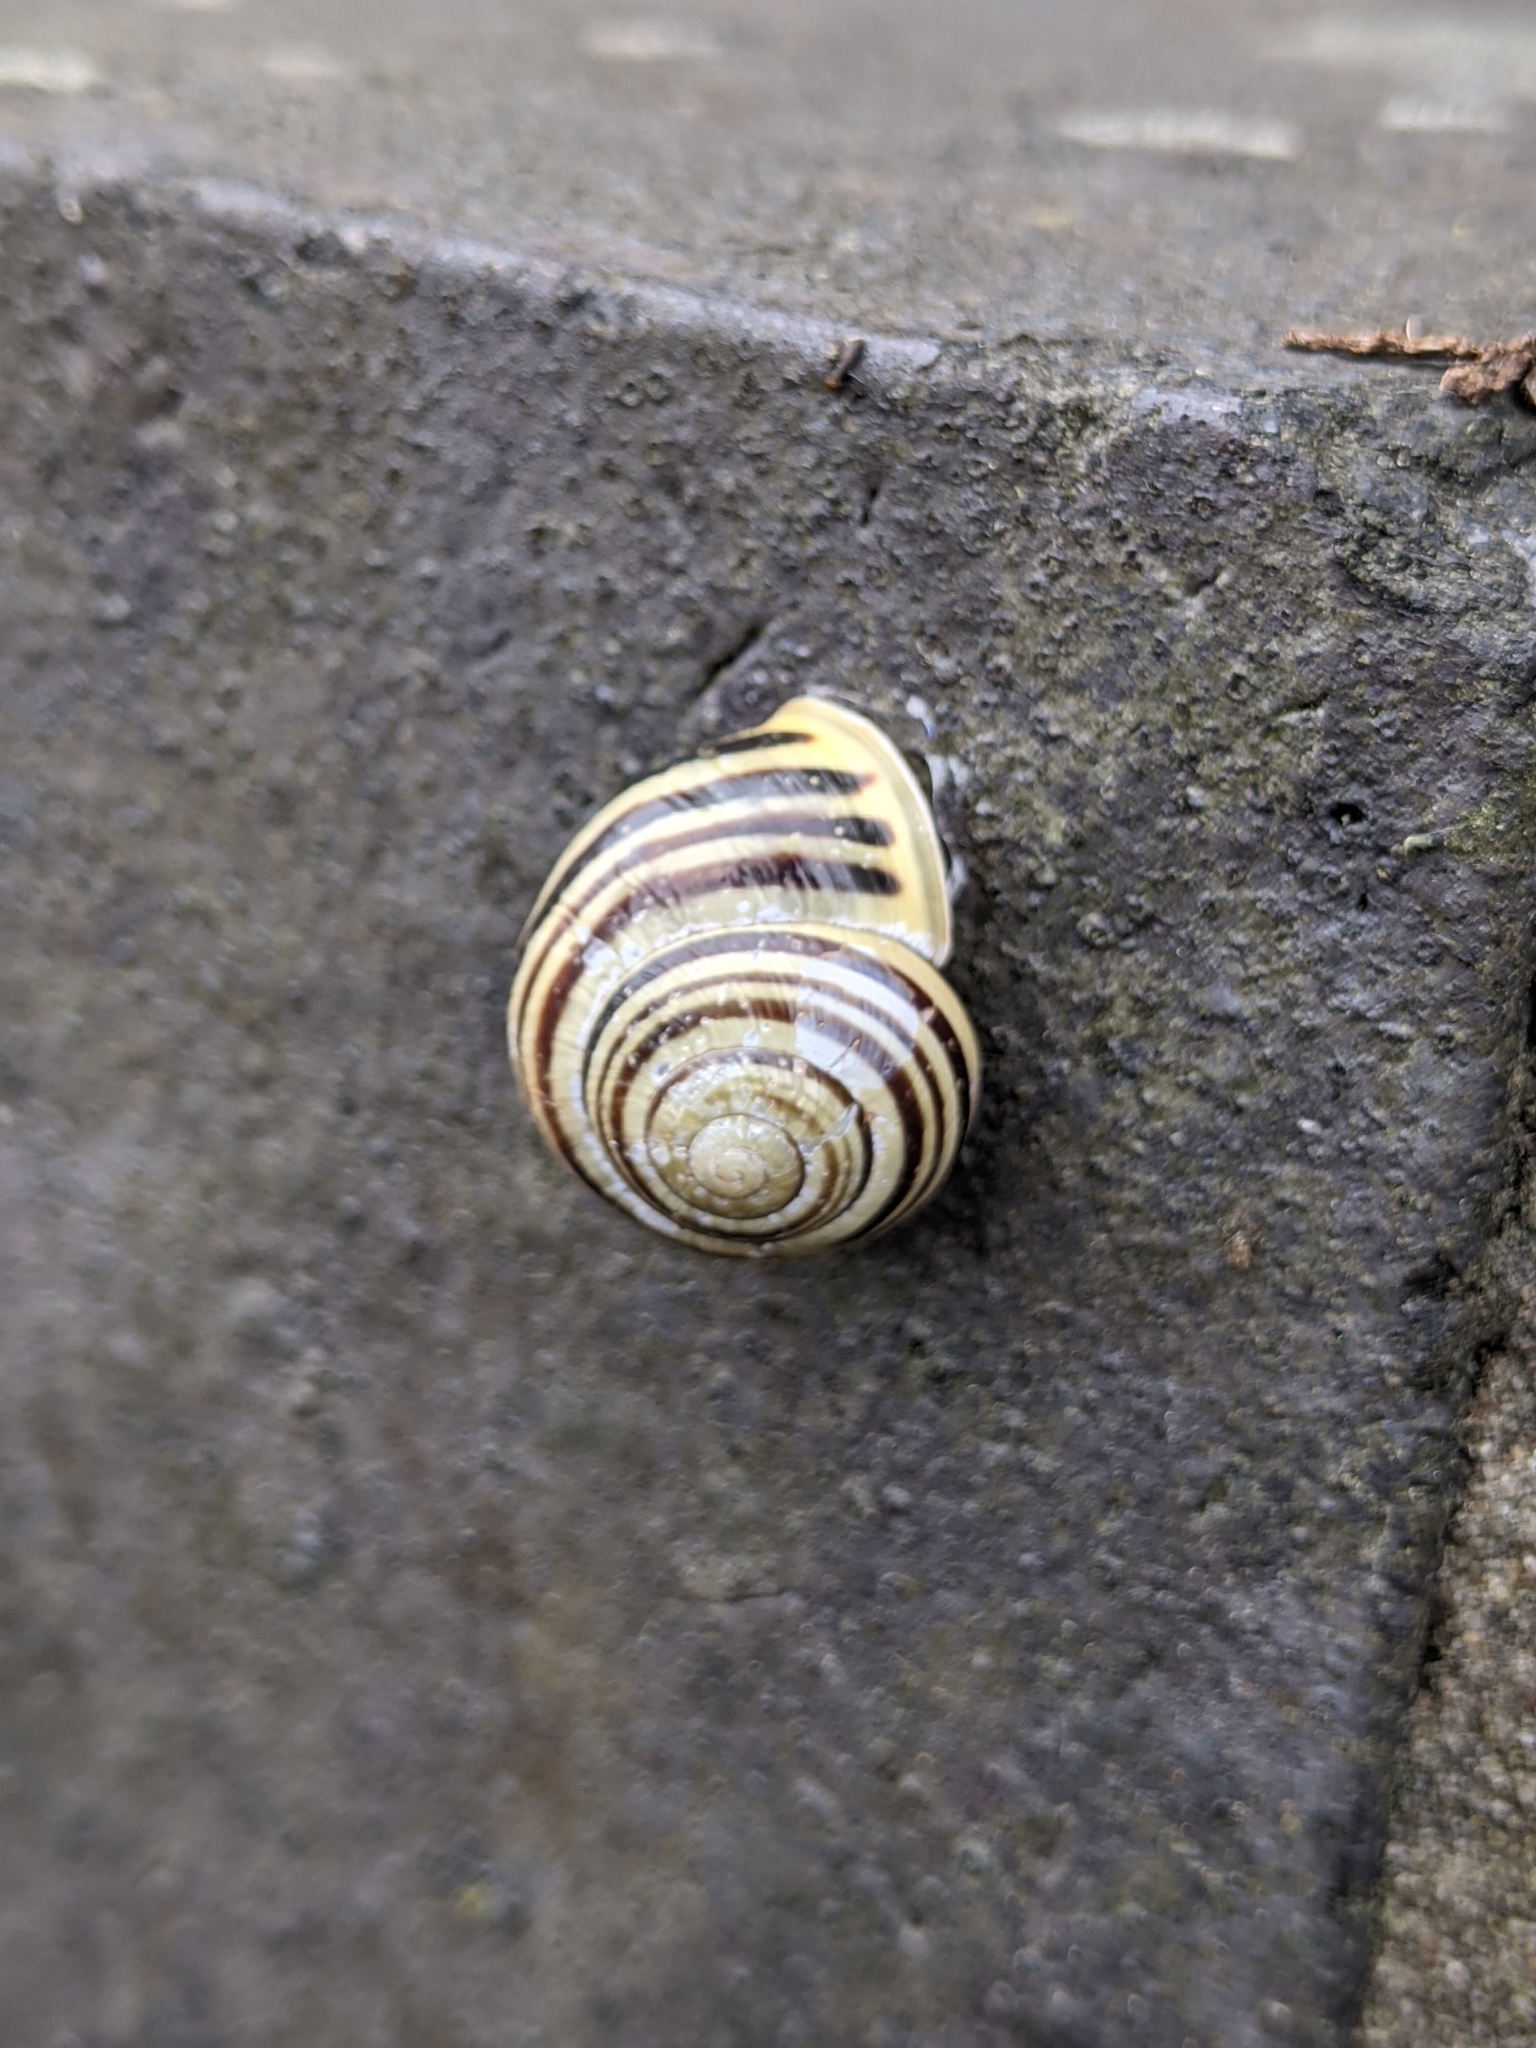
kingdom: Animalia
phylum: Mollusca
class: Gastropoda
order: Stylommatophora
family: Helicidae
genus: Cepaea
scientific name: Cepaea hortensis
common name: White-lip gardensnail
